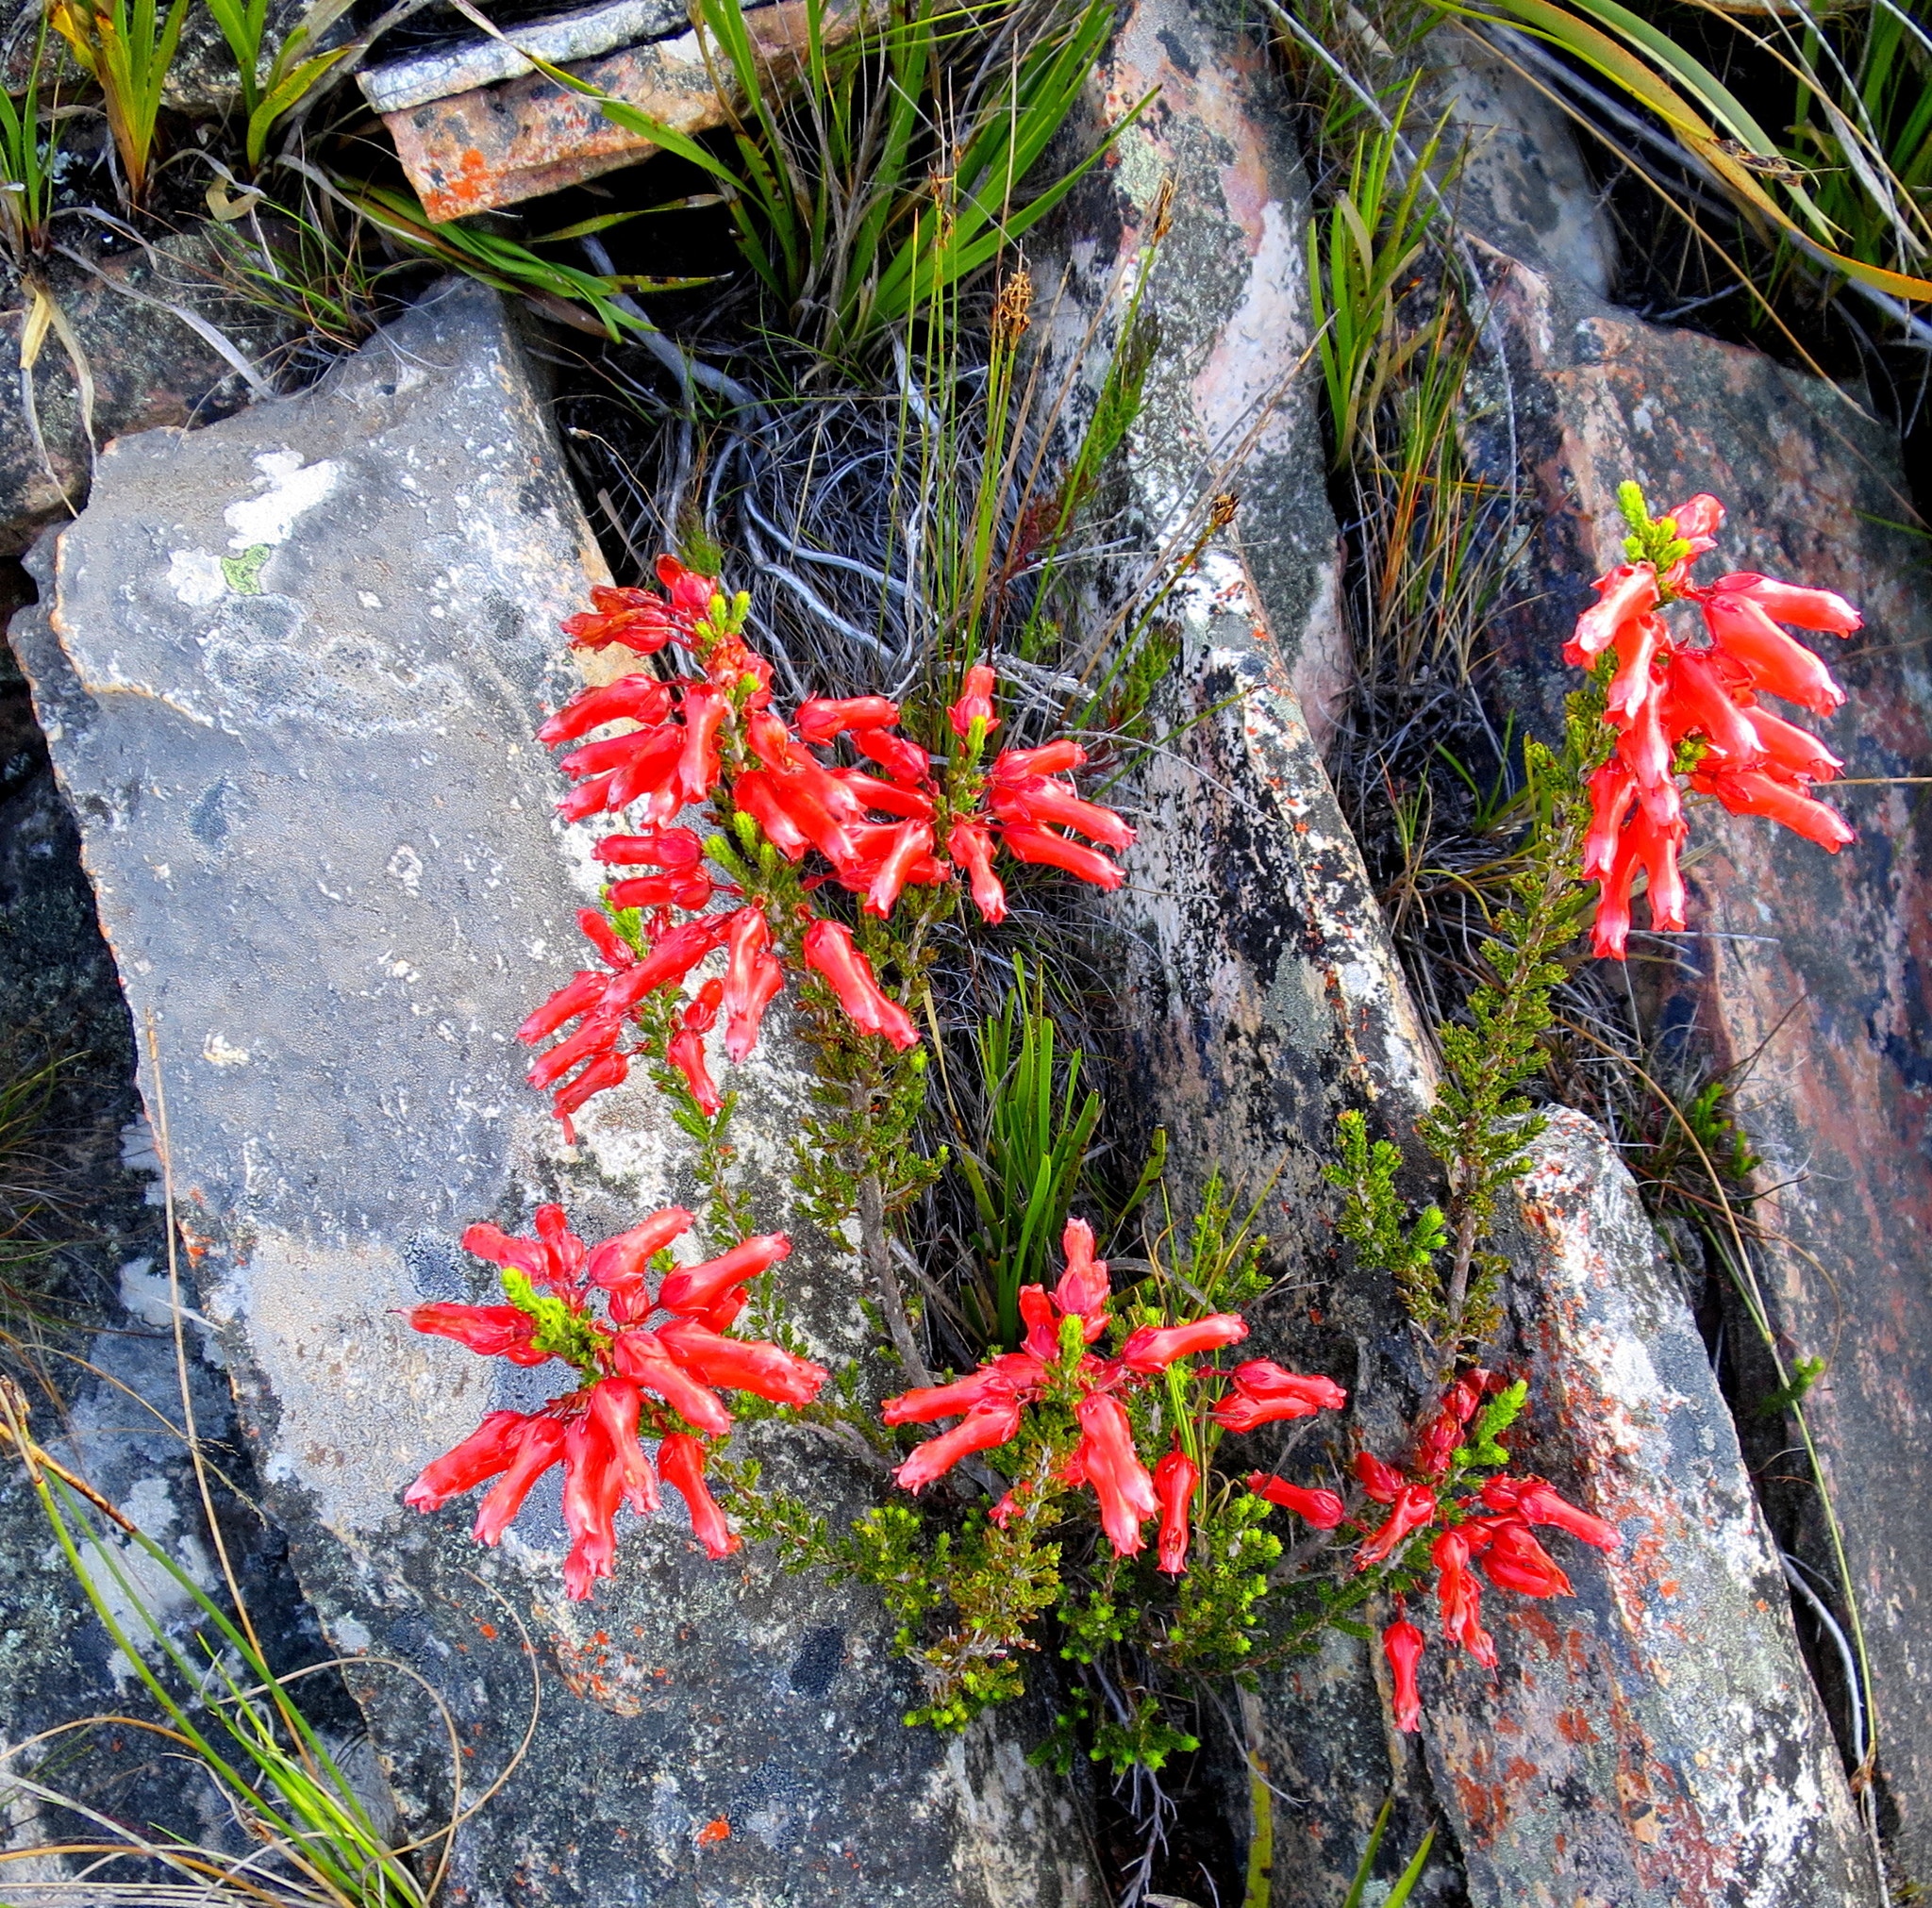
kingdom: Plantae
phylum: Tracheophyta
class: Magnoliopsida
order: Ericales
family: Ericaceae
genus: Erica
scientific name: Erica inordinata
